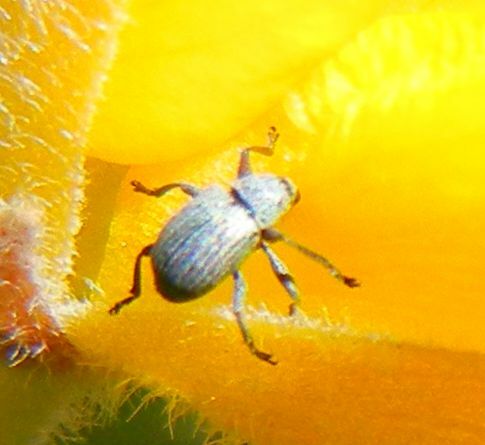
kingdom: Animalia
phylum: Arthropoda
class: Insecta
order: Coleoptera
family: Brentidae
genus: Exapion
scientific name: Exapion ulicis
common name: Gorse seed weevil
